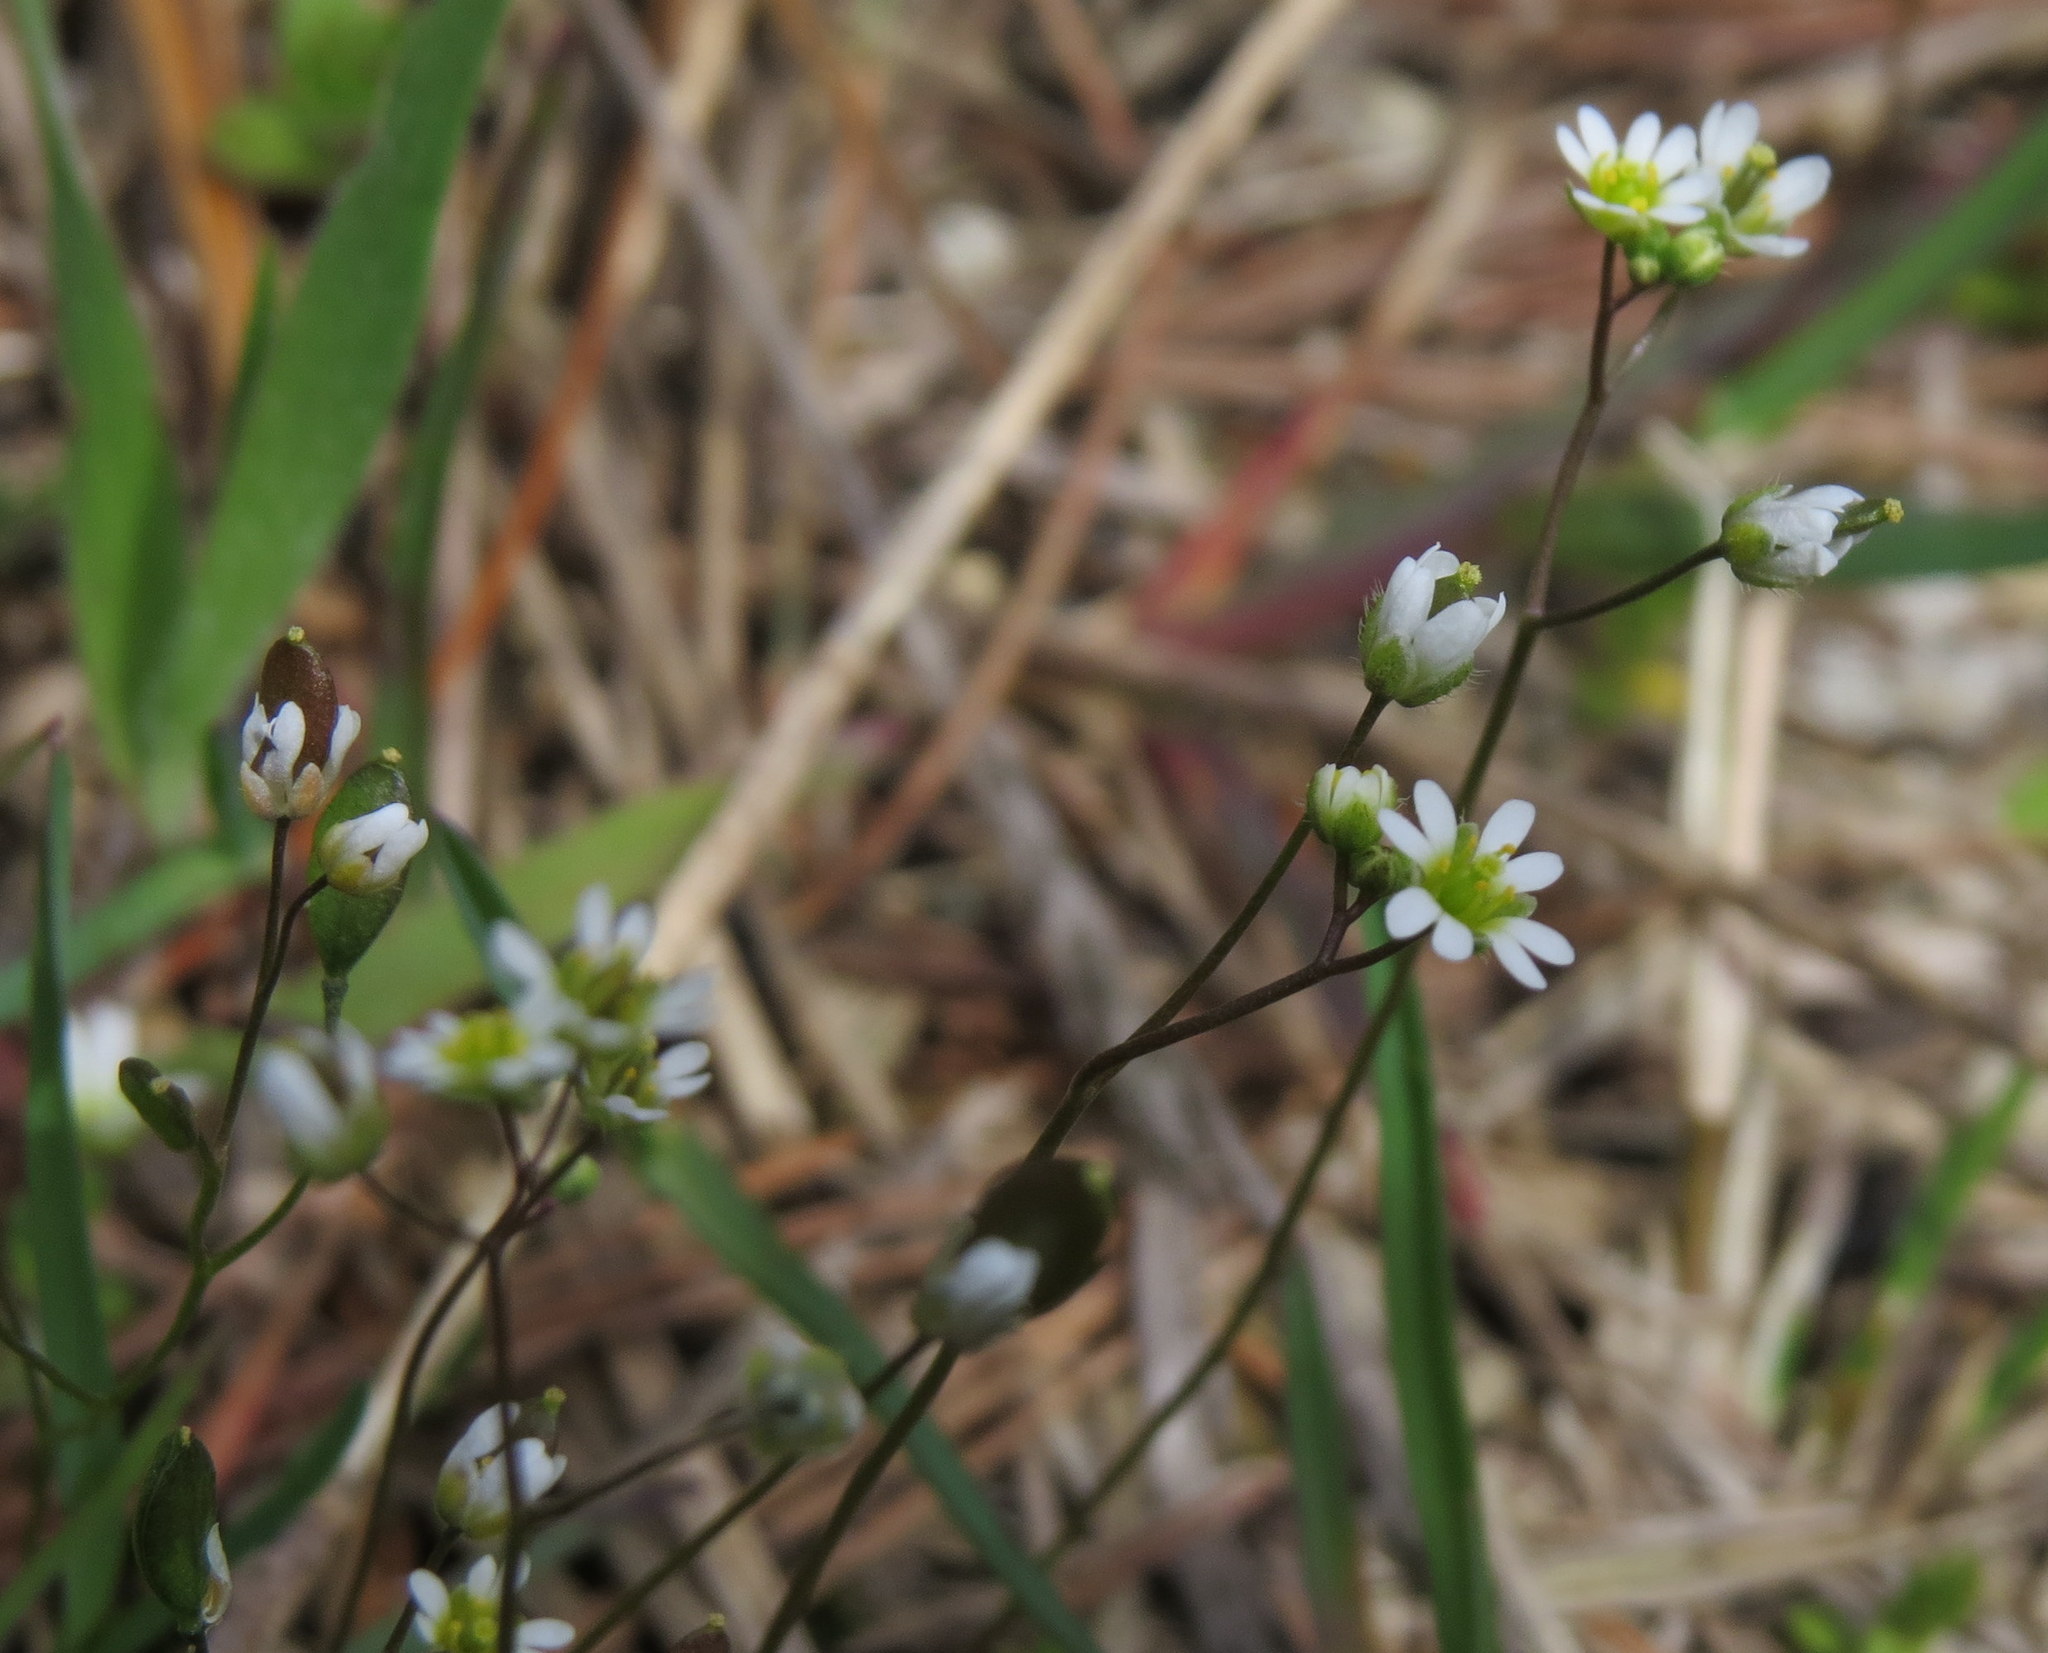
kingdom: Plantae
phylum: Tracheophyta
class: Magnoliopsida
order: Brassicales
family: Brassicaceae
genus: Draba
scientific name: Draba verna
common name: Spring draba
